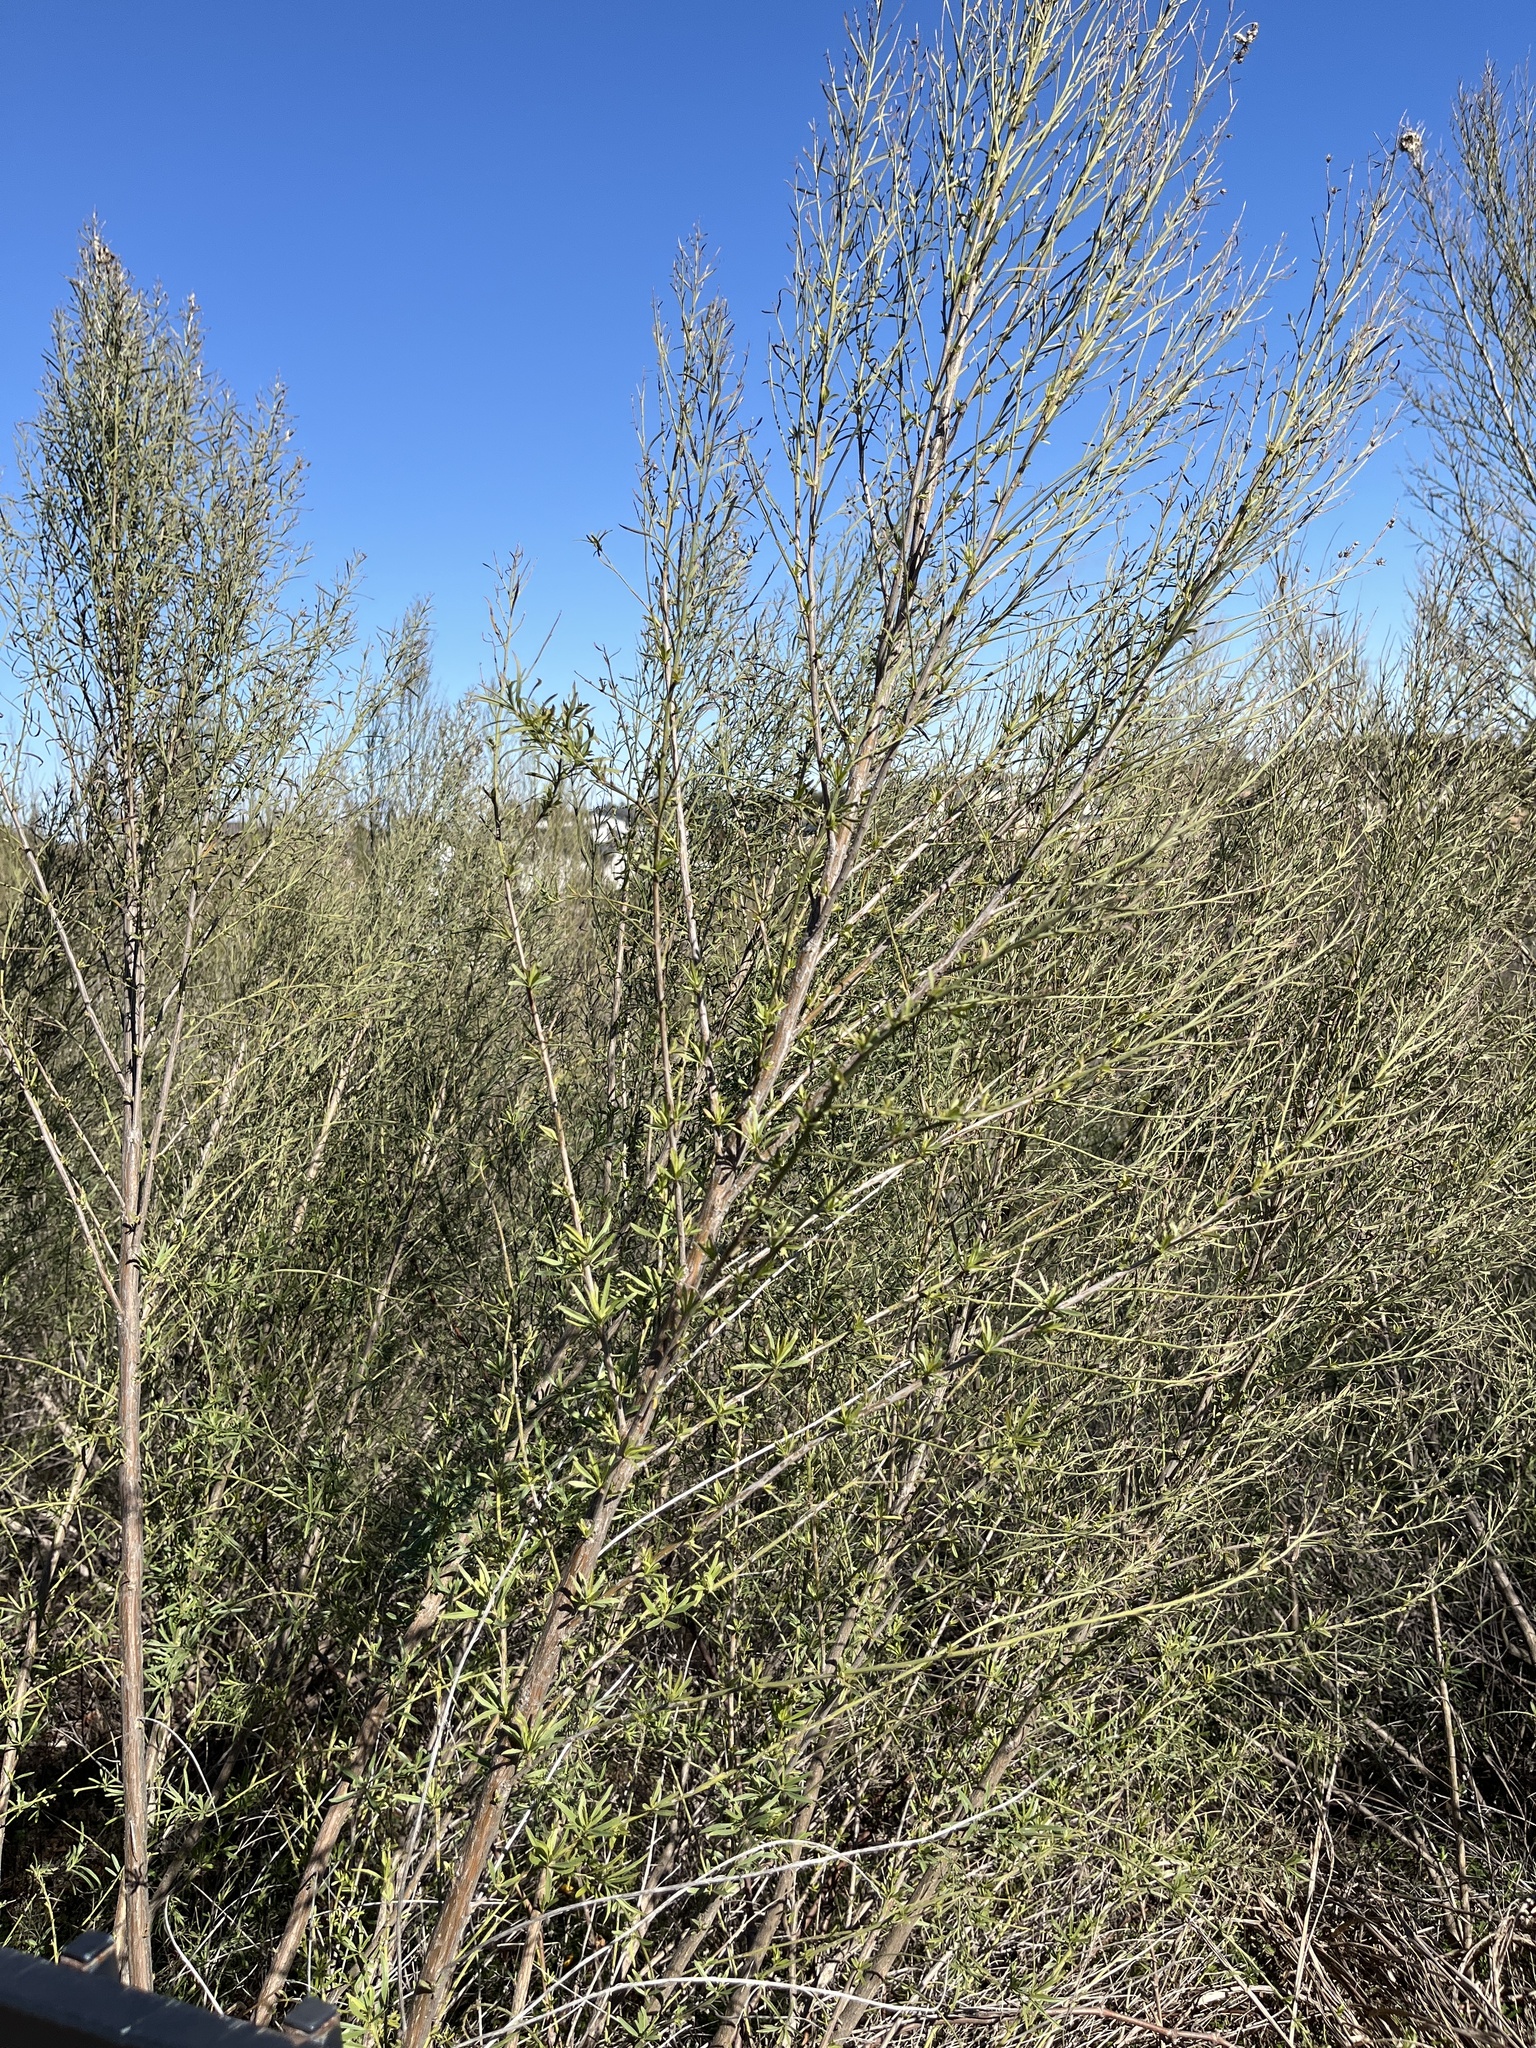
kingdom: Plantae
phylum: Tracheophyta
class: Magnoliopsida
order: Asterales
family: Asteraceae
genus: Baccharis
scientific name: Baccharis neglecta
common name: Roosevelt-weed
